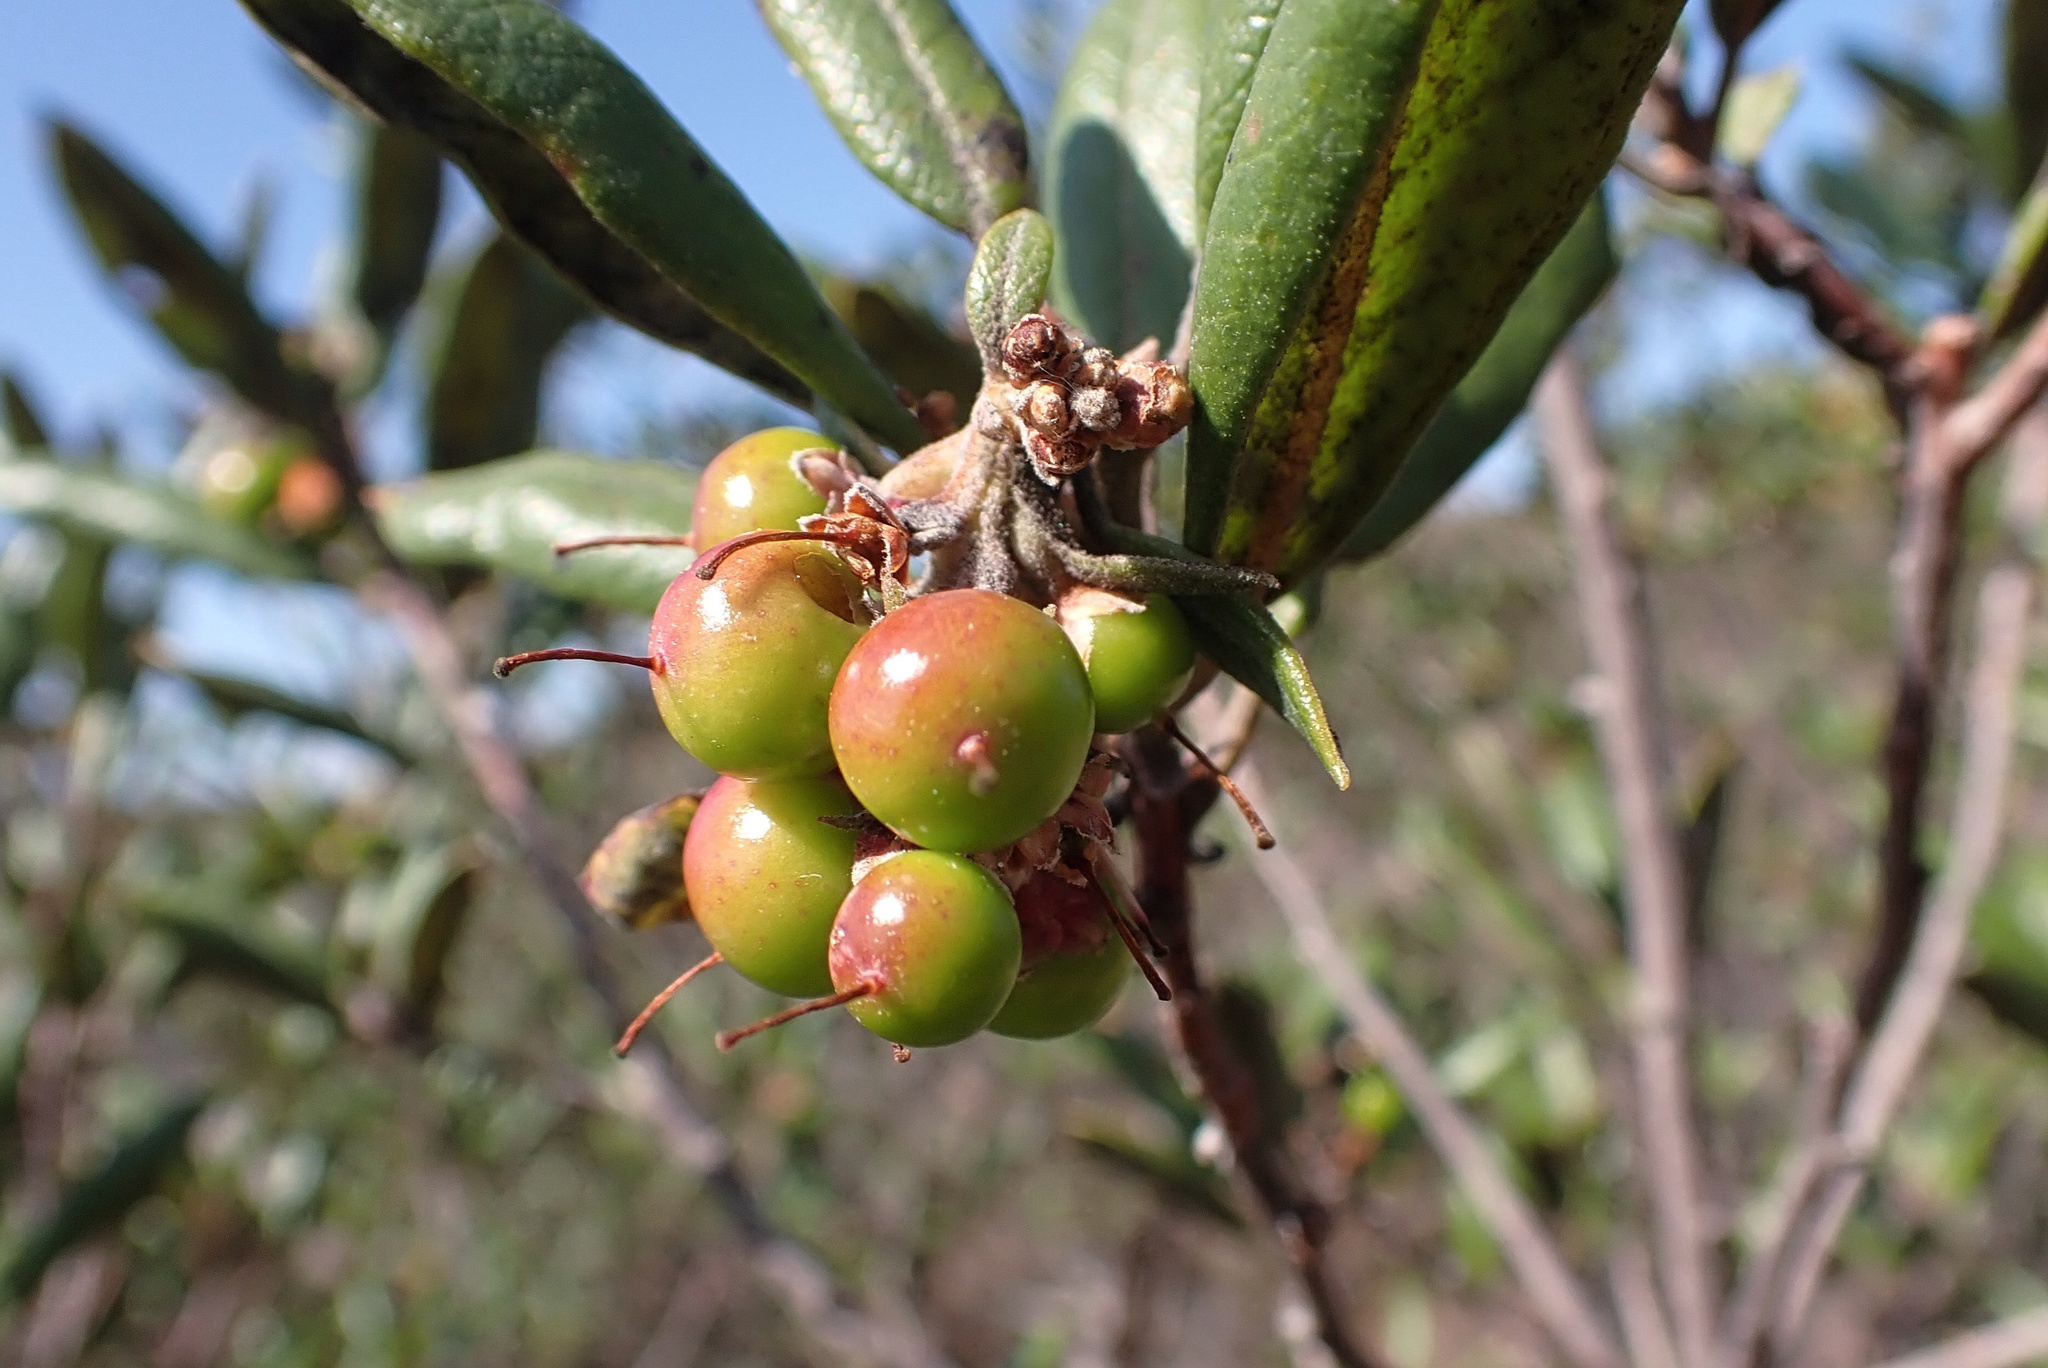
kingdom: Plantae
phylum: Tracheophyta
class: Magnoliopsida
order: Ericales
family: Ericaceae
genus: Arctostaphylos
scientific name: Arctostaphylos bicolor
